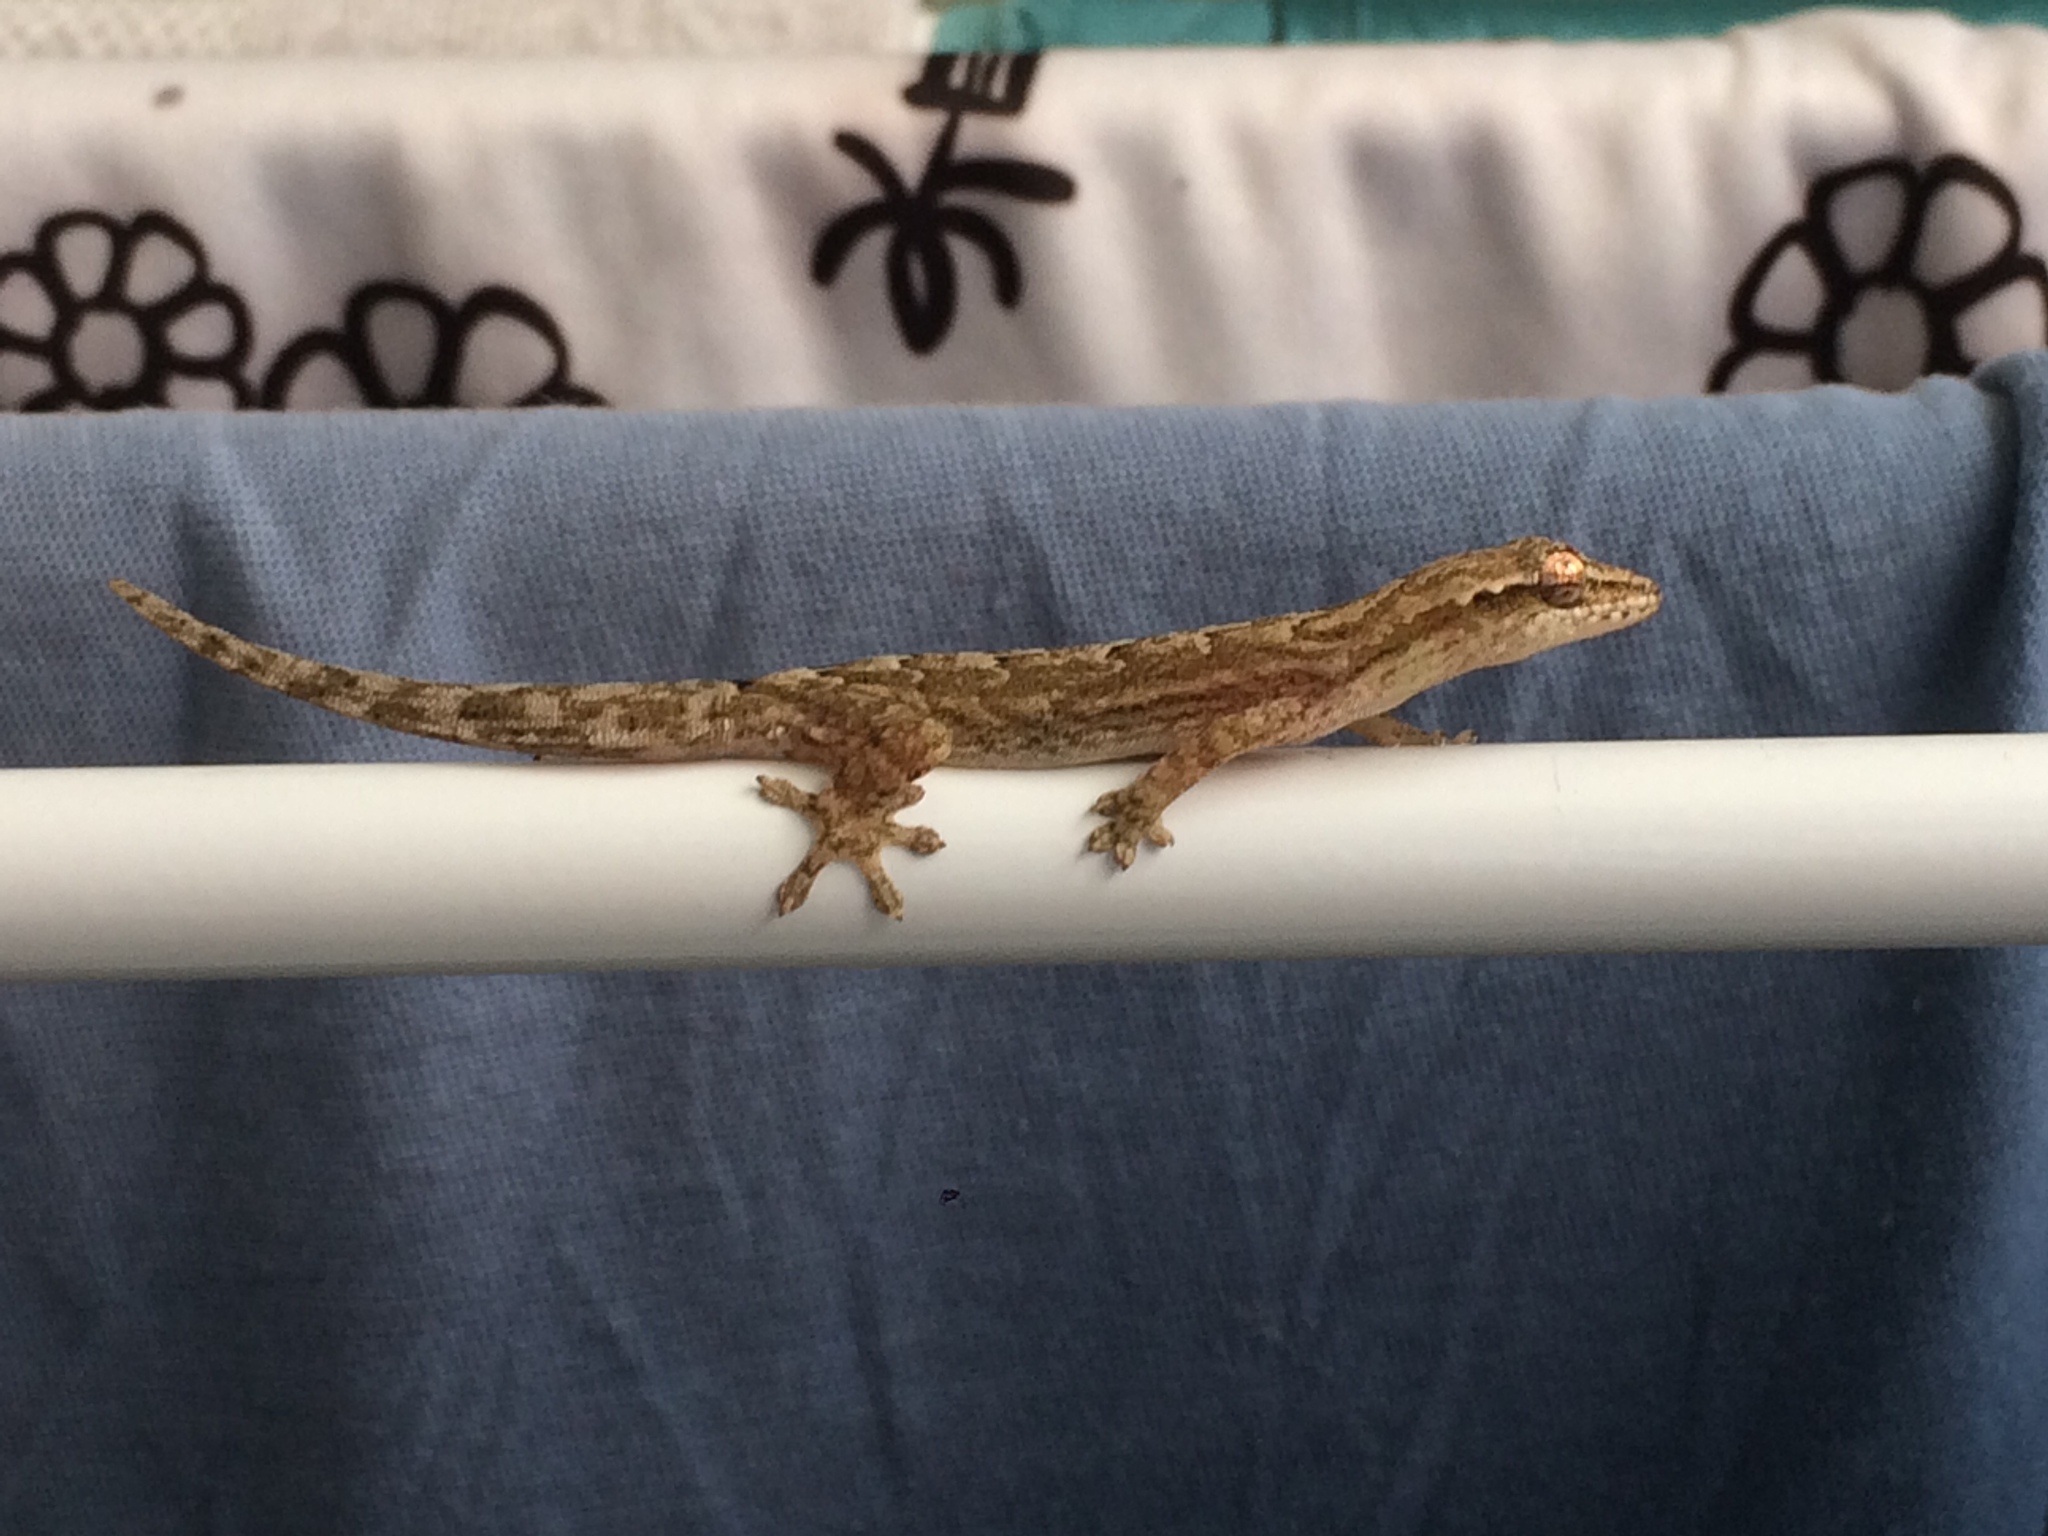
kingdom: Animalia
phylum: Chordata
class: Squamata
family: Gekkonidae
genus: Lepidodactylus
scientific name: Lepidodactylus lugubris
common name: Mourning gecko
